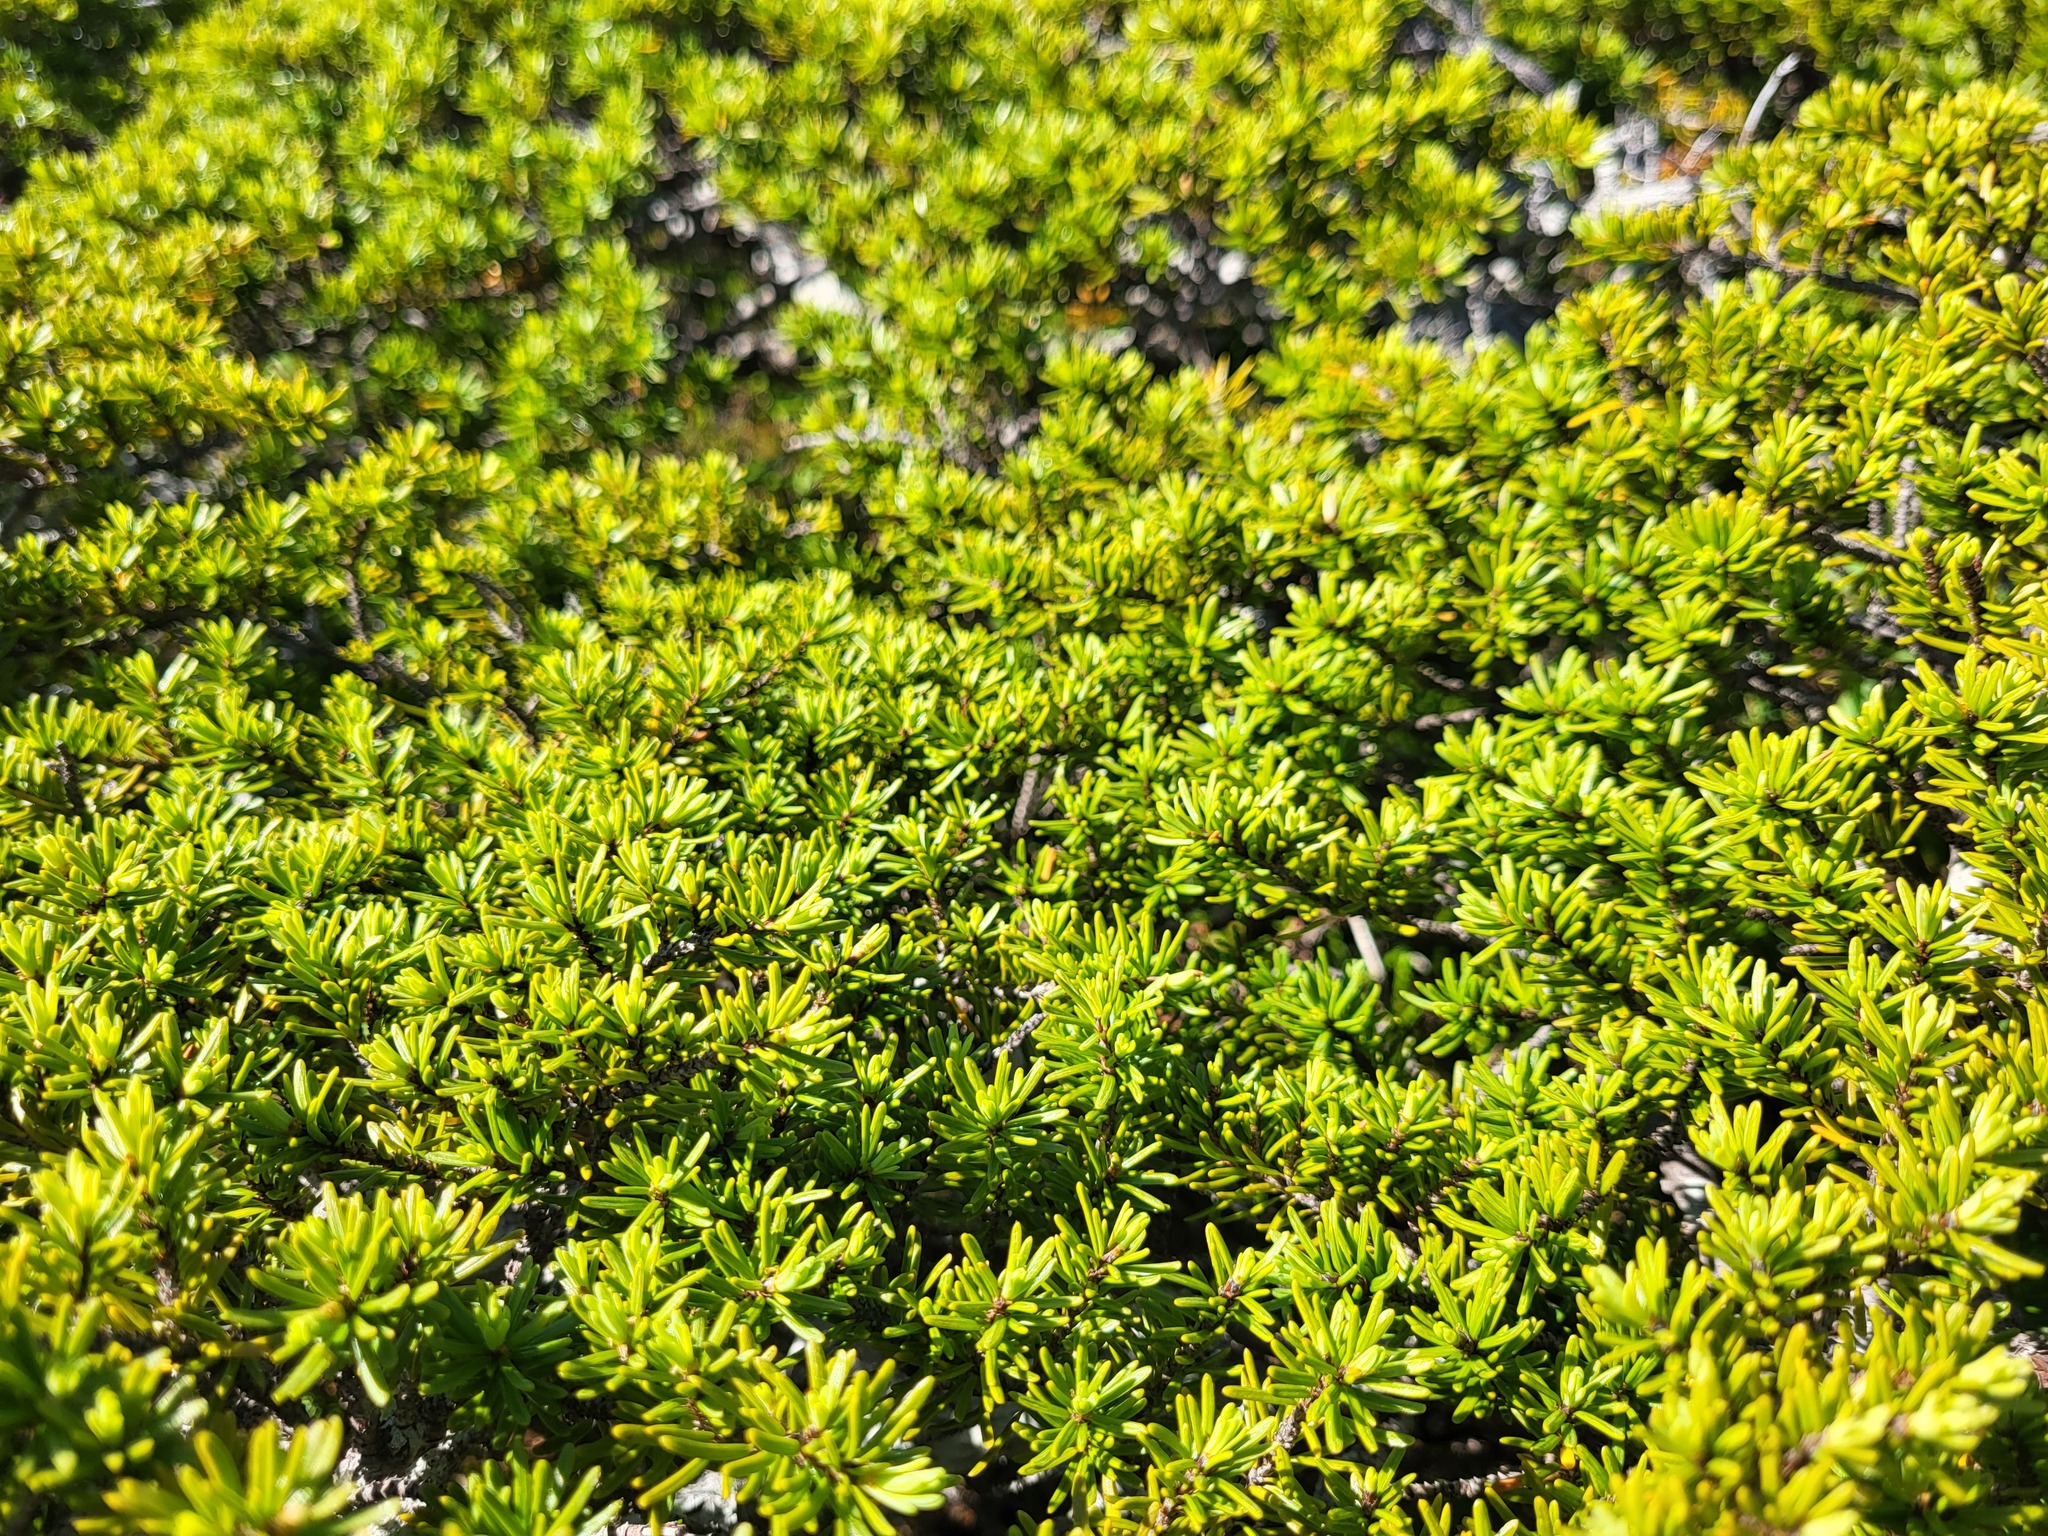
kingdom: Plantae
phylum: Tracheophyta
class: Pinopsida
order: Pinales
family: Pinaceae
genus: Tsuga
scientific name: Tsuga mertensiana
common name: Mountain hemlock
